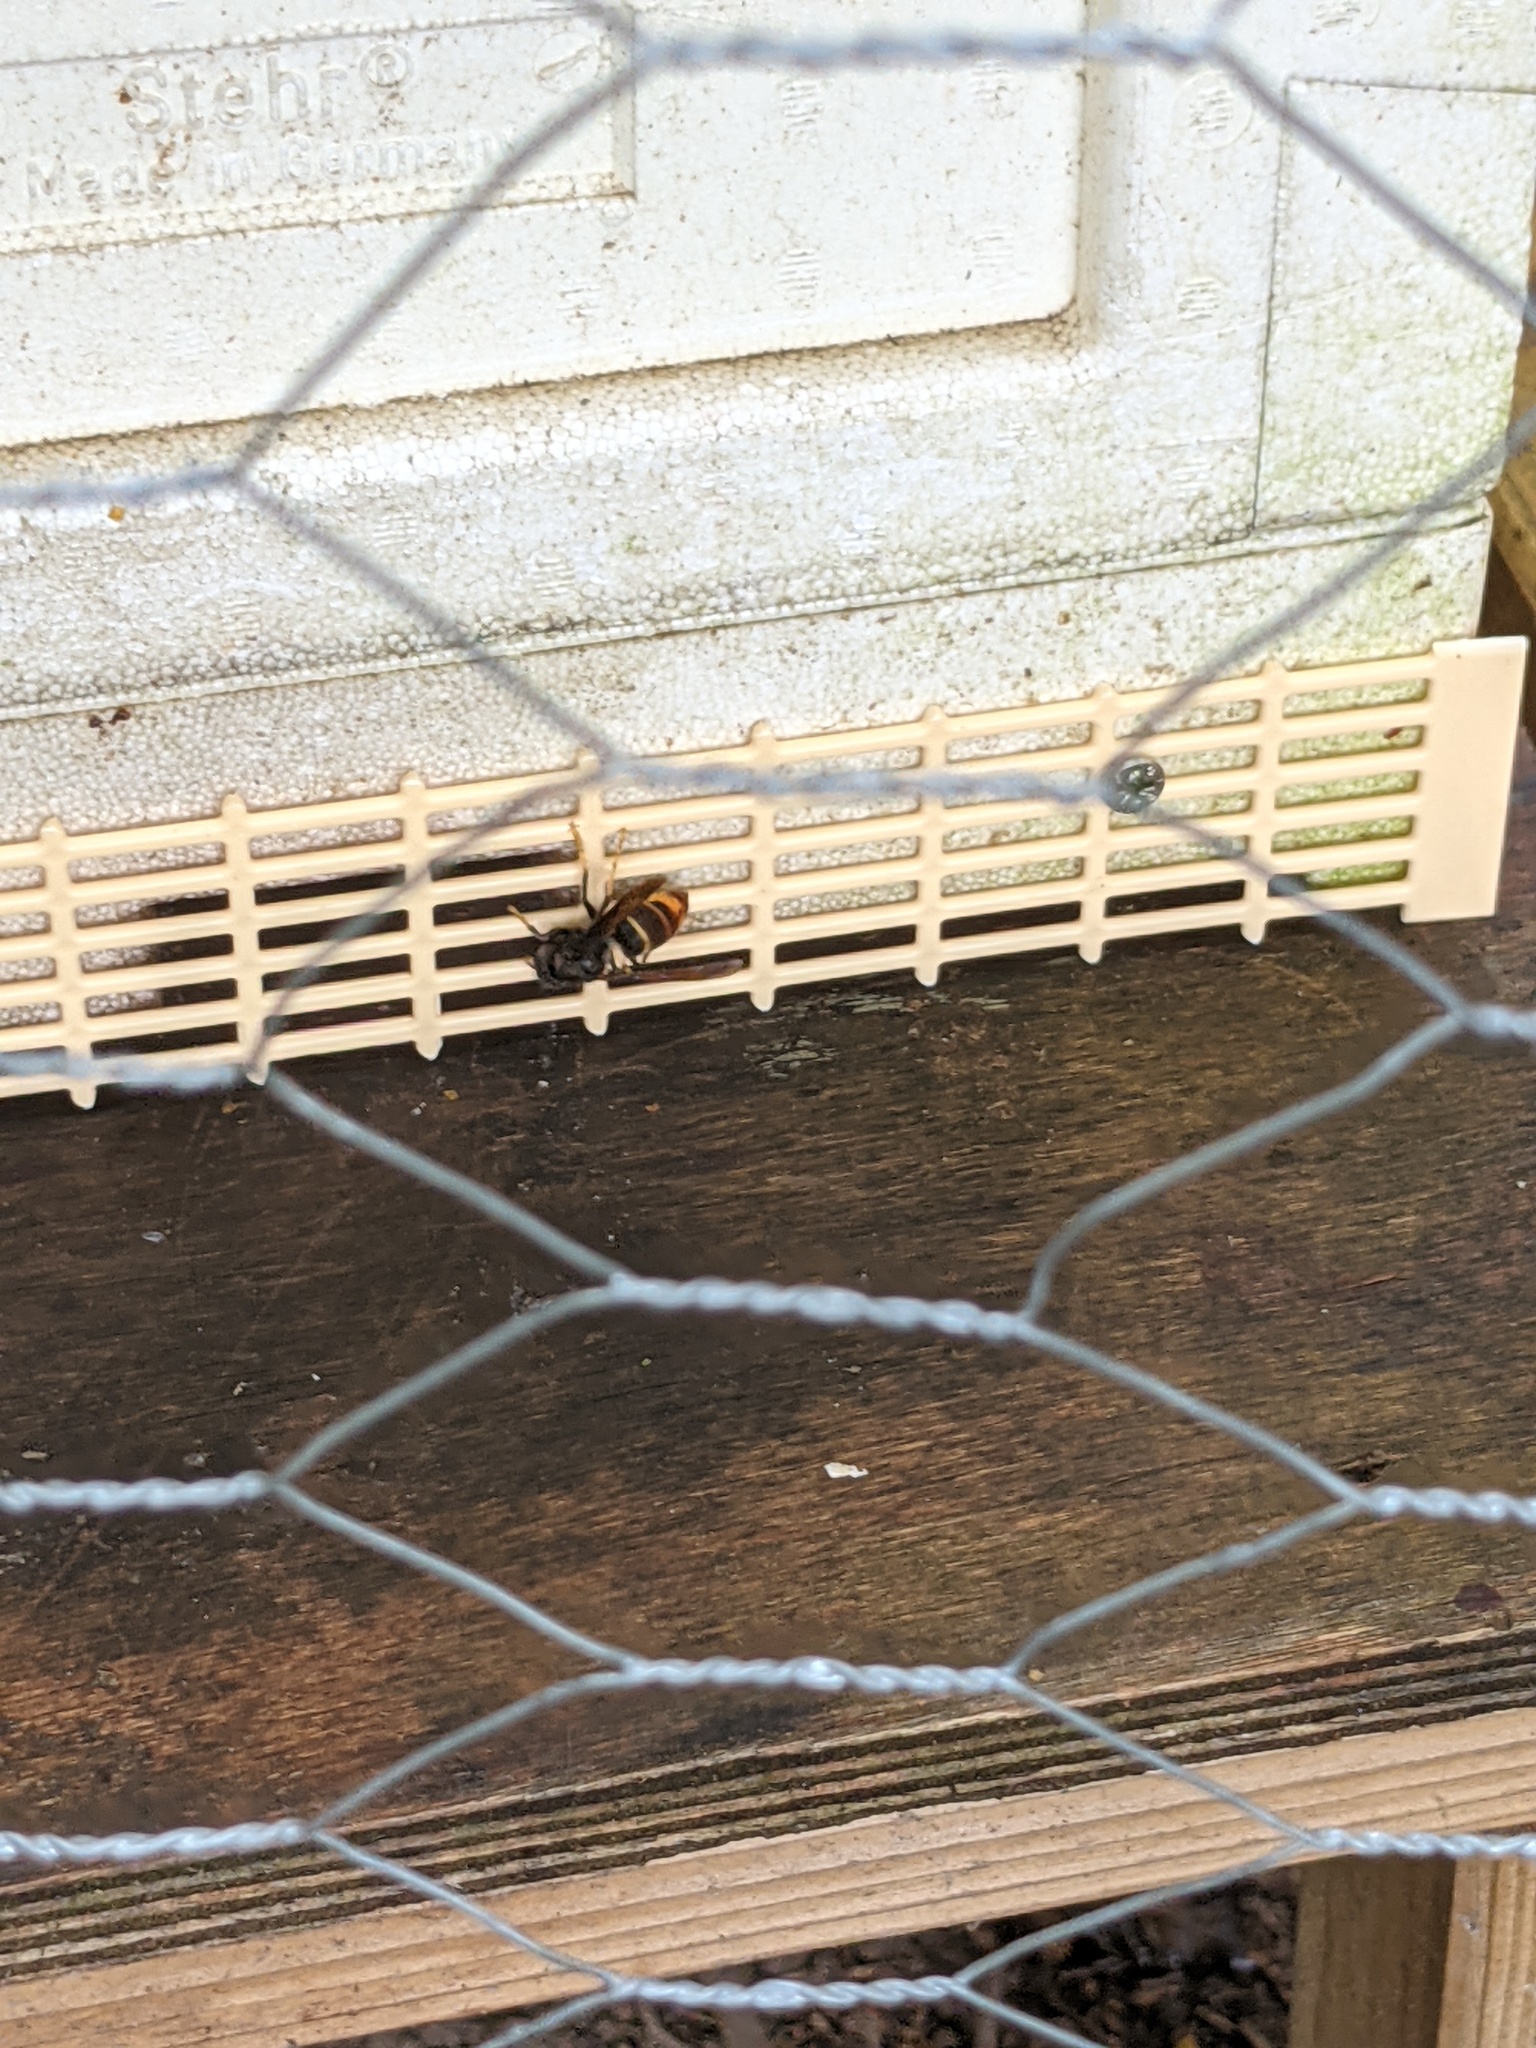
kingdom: Animalia
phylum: Arthropoda
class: Insecta
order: Hymenoptera
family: Vespidae
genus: Vespa
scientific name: Vespa velutina
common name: Asian hornet
